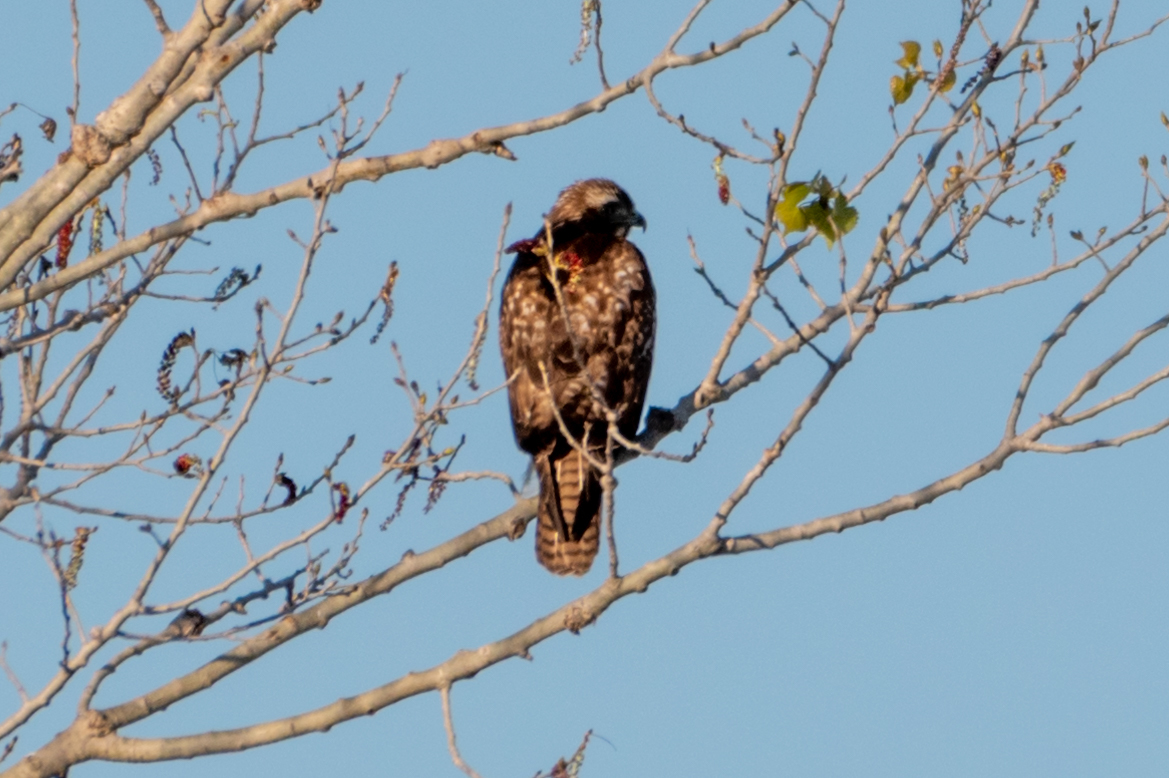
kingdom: Animalia
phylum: Chordata
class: Aves
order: Accipitriformes
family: Accipitridae
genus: Buteo
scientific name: Buteo jamaicensis
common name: Red-tailed hawk
